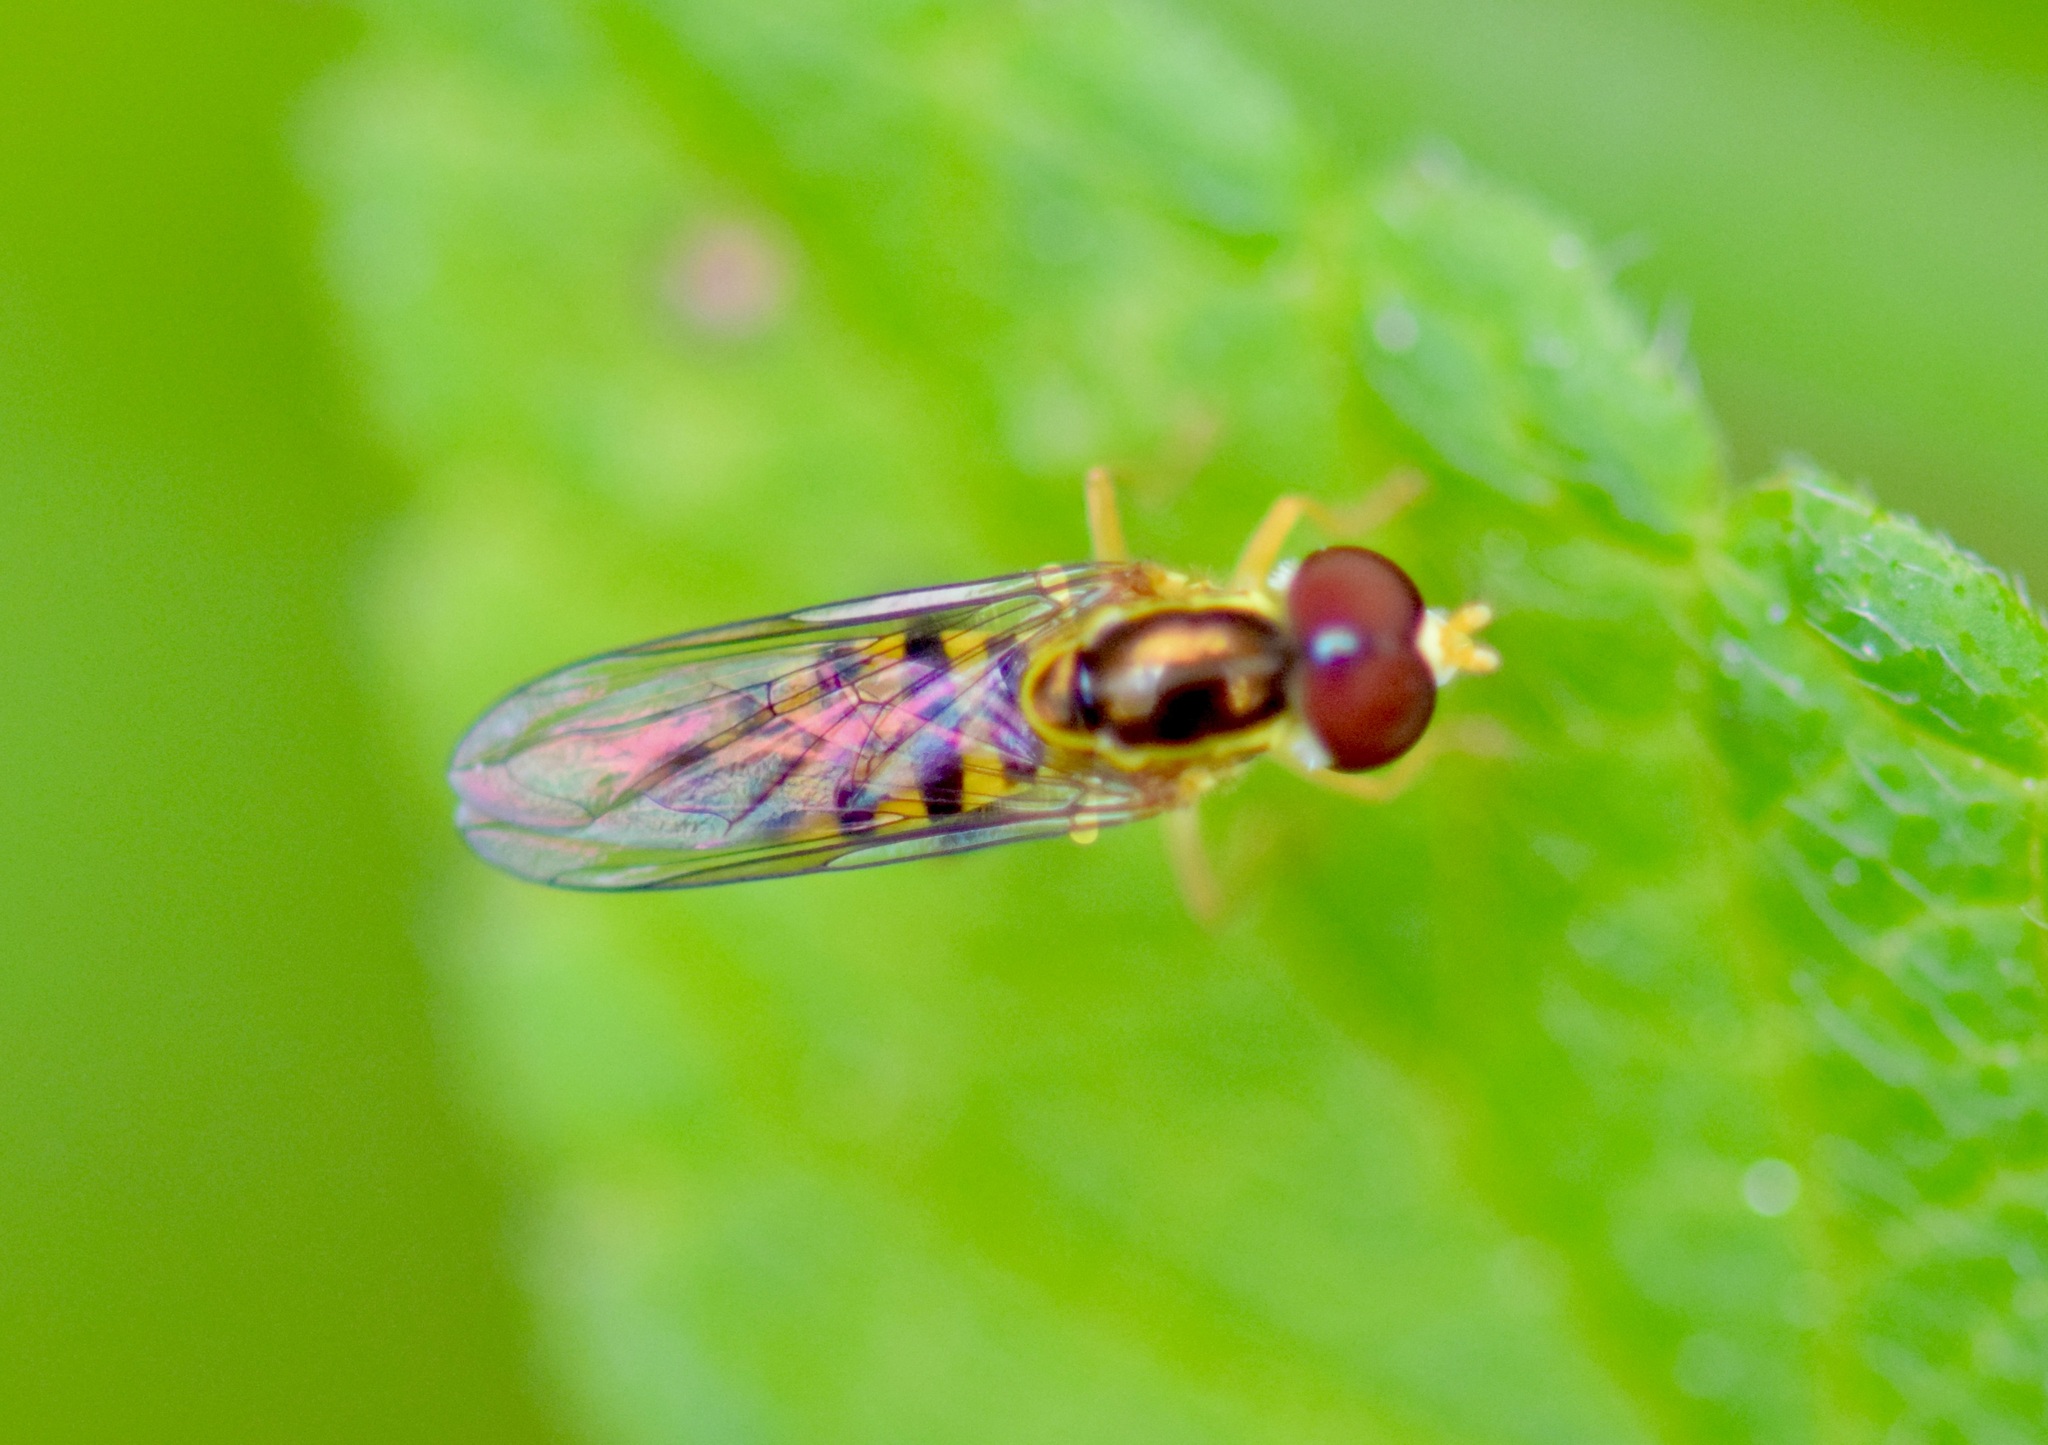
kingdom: Animalia
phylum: Arthropoda
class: Insecta
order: Diptera
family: Syrphidae
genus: Toxomerus
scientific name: Toxomerus geminatus
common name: Eastern calligrapher
